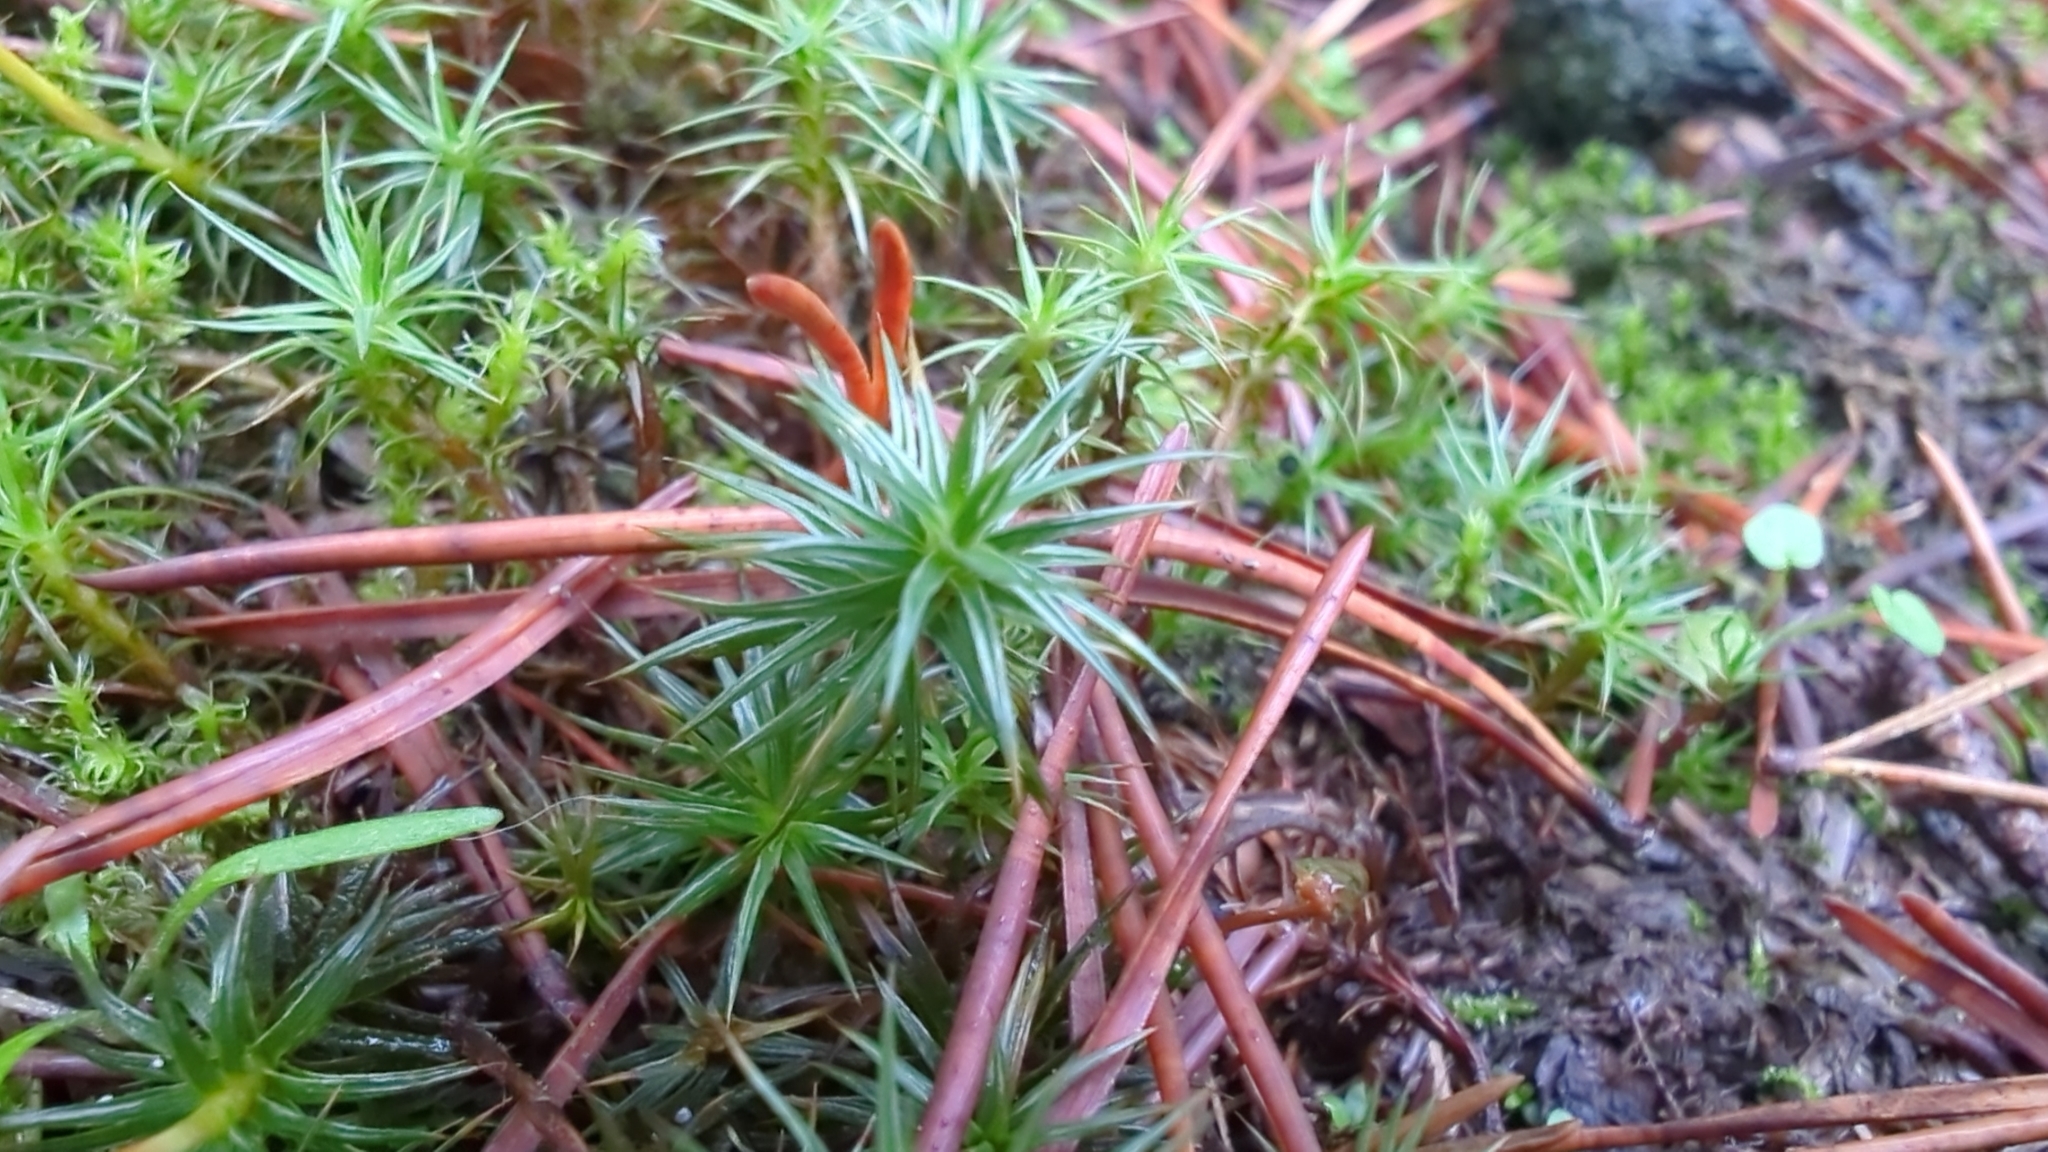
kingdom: Plantae
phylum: Bryophyta
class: Polytrichopsida
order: Polytrichales
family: Polytrichaceae
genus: Polytrichum
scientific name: Polytrichum juniperinum
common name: Juniper haircap moss
